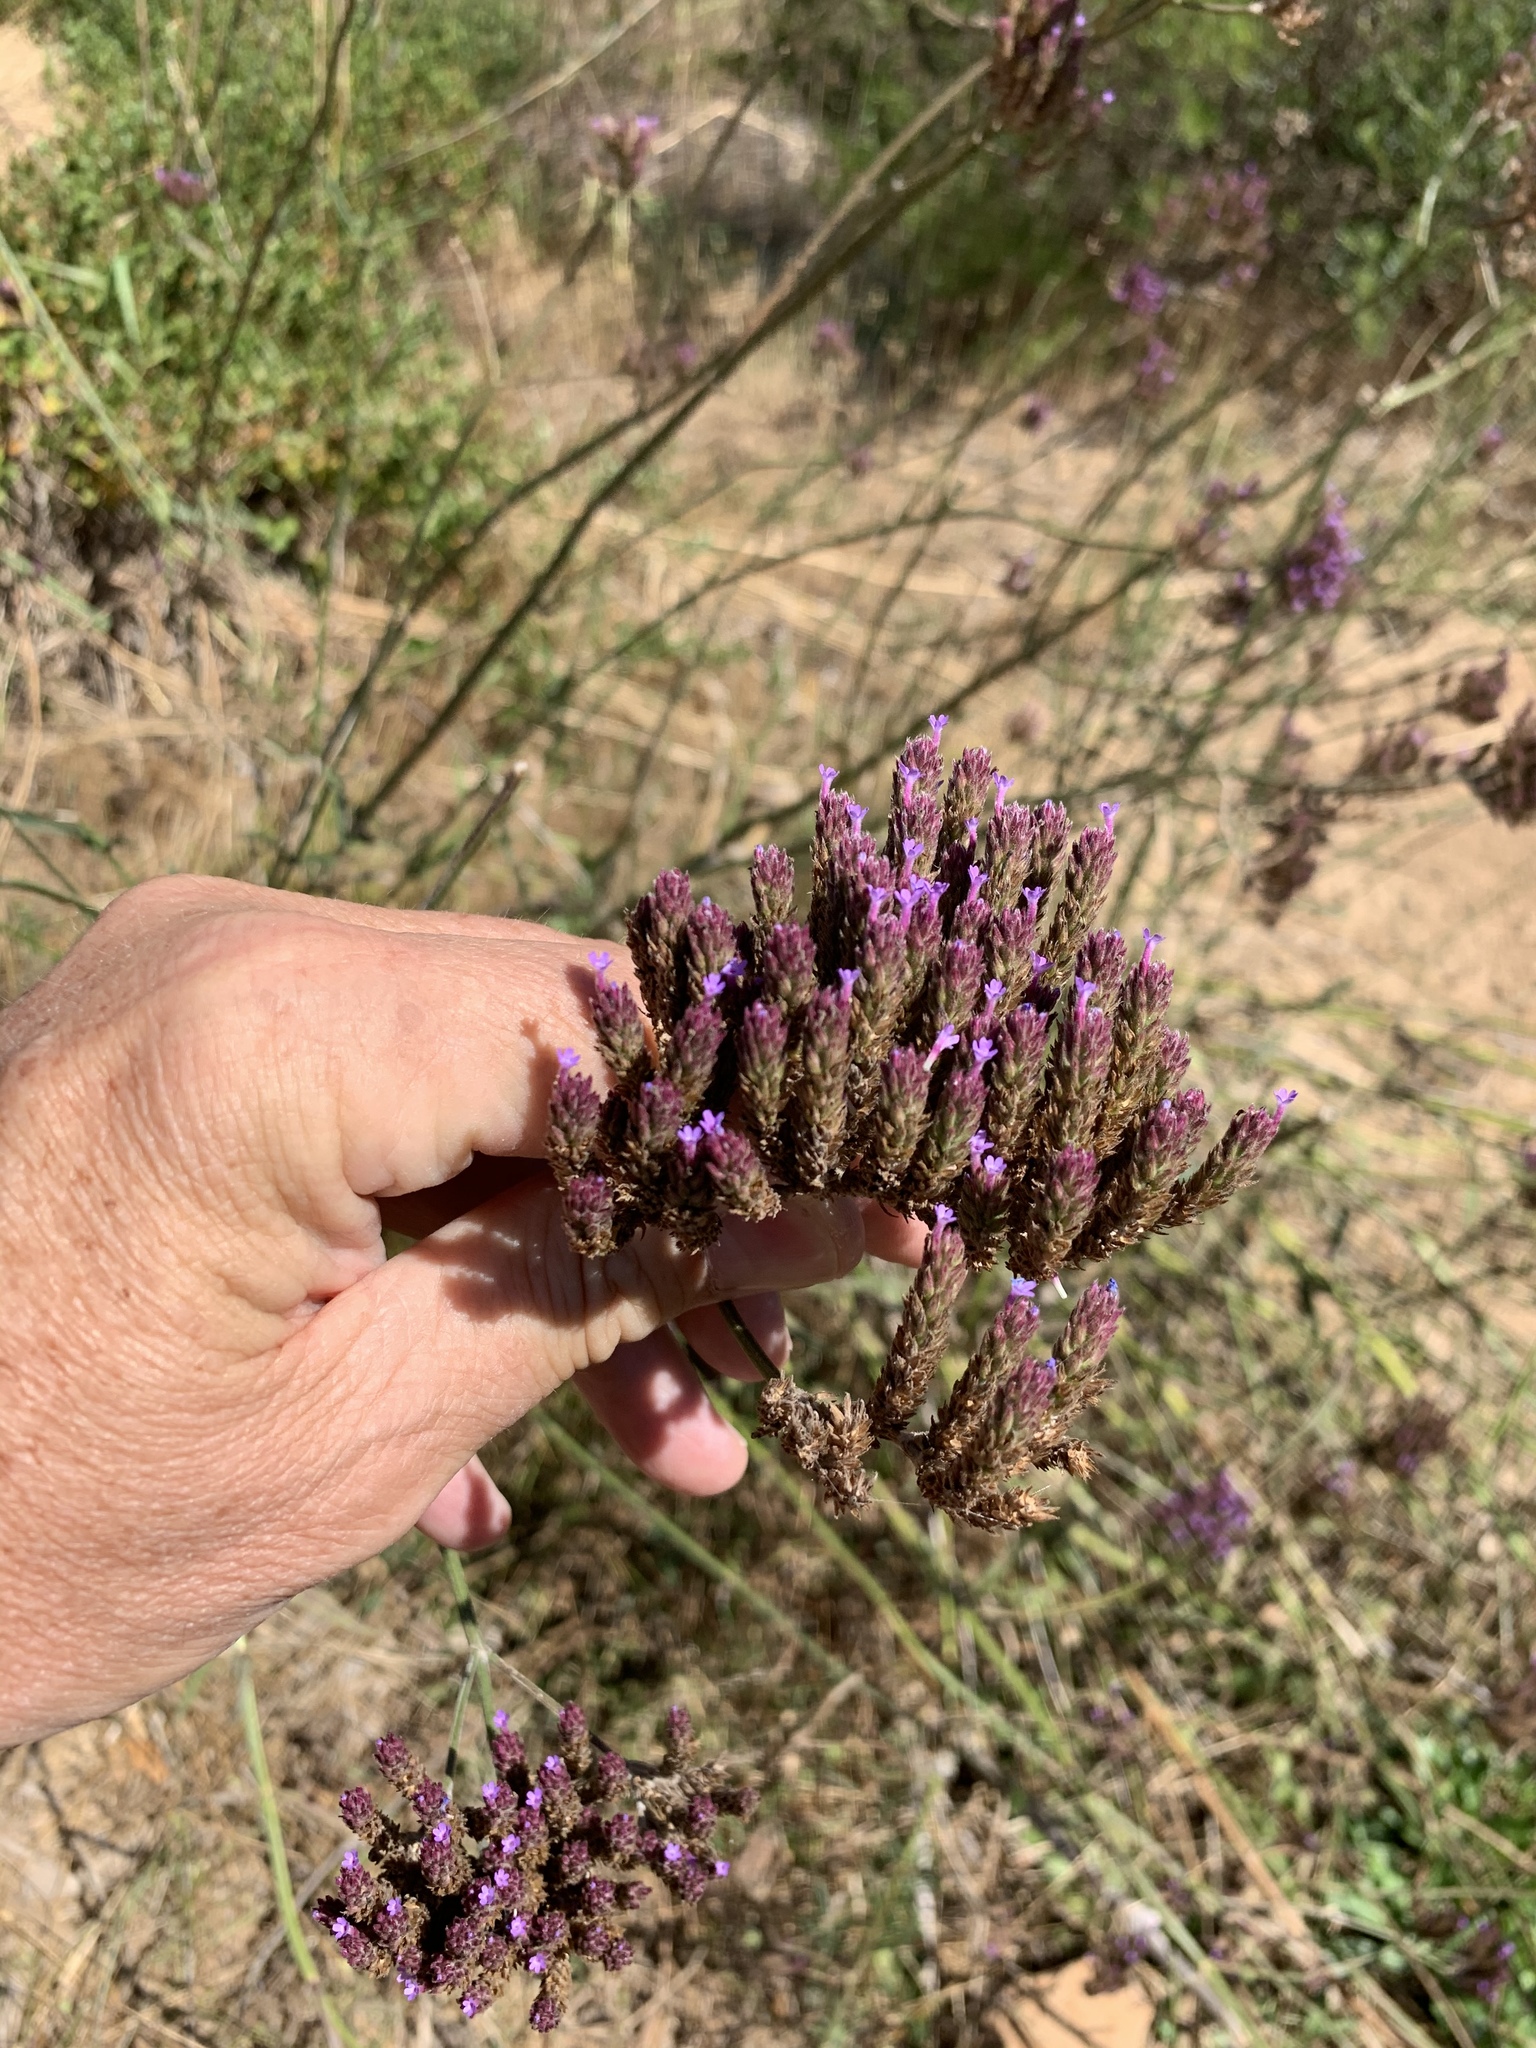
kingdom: Plantae
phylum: Tracheophyta
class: Magnoliopsida
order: Lamiales
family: Verbenaceae
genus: Verbena
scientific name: Verbena bonariensis
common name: Purpletop vervain
